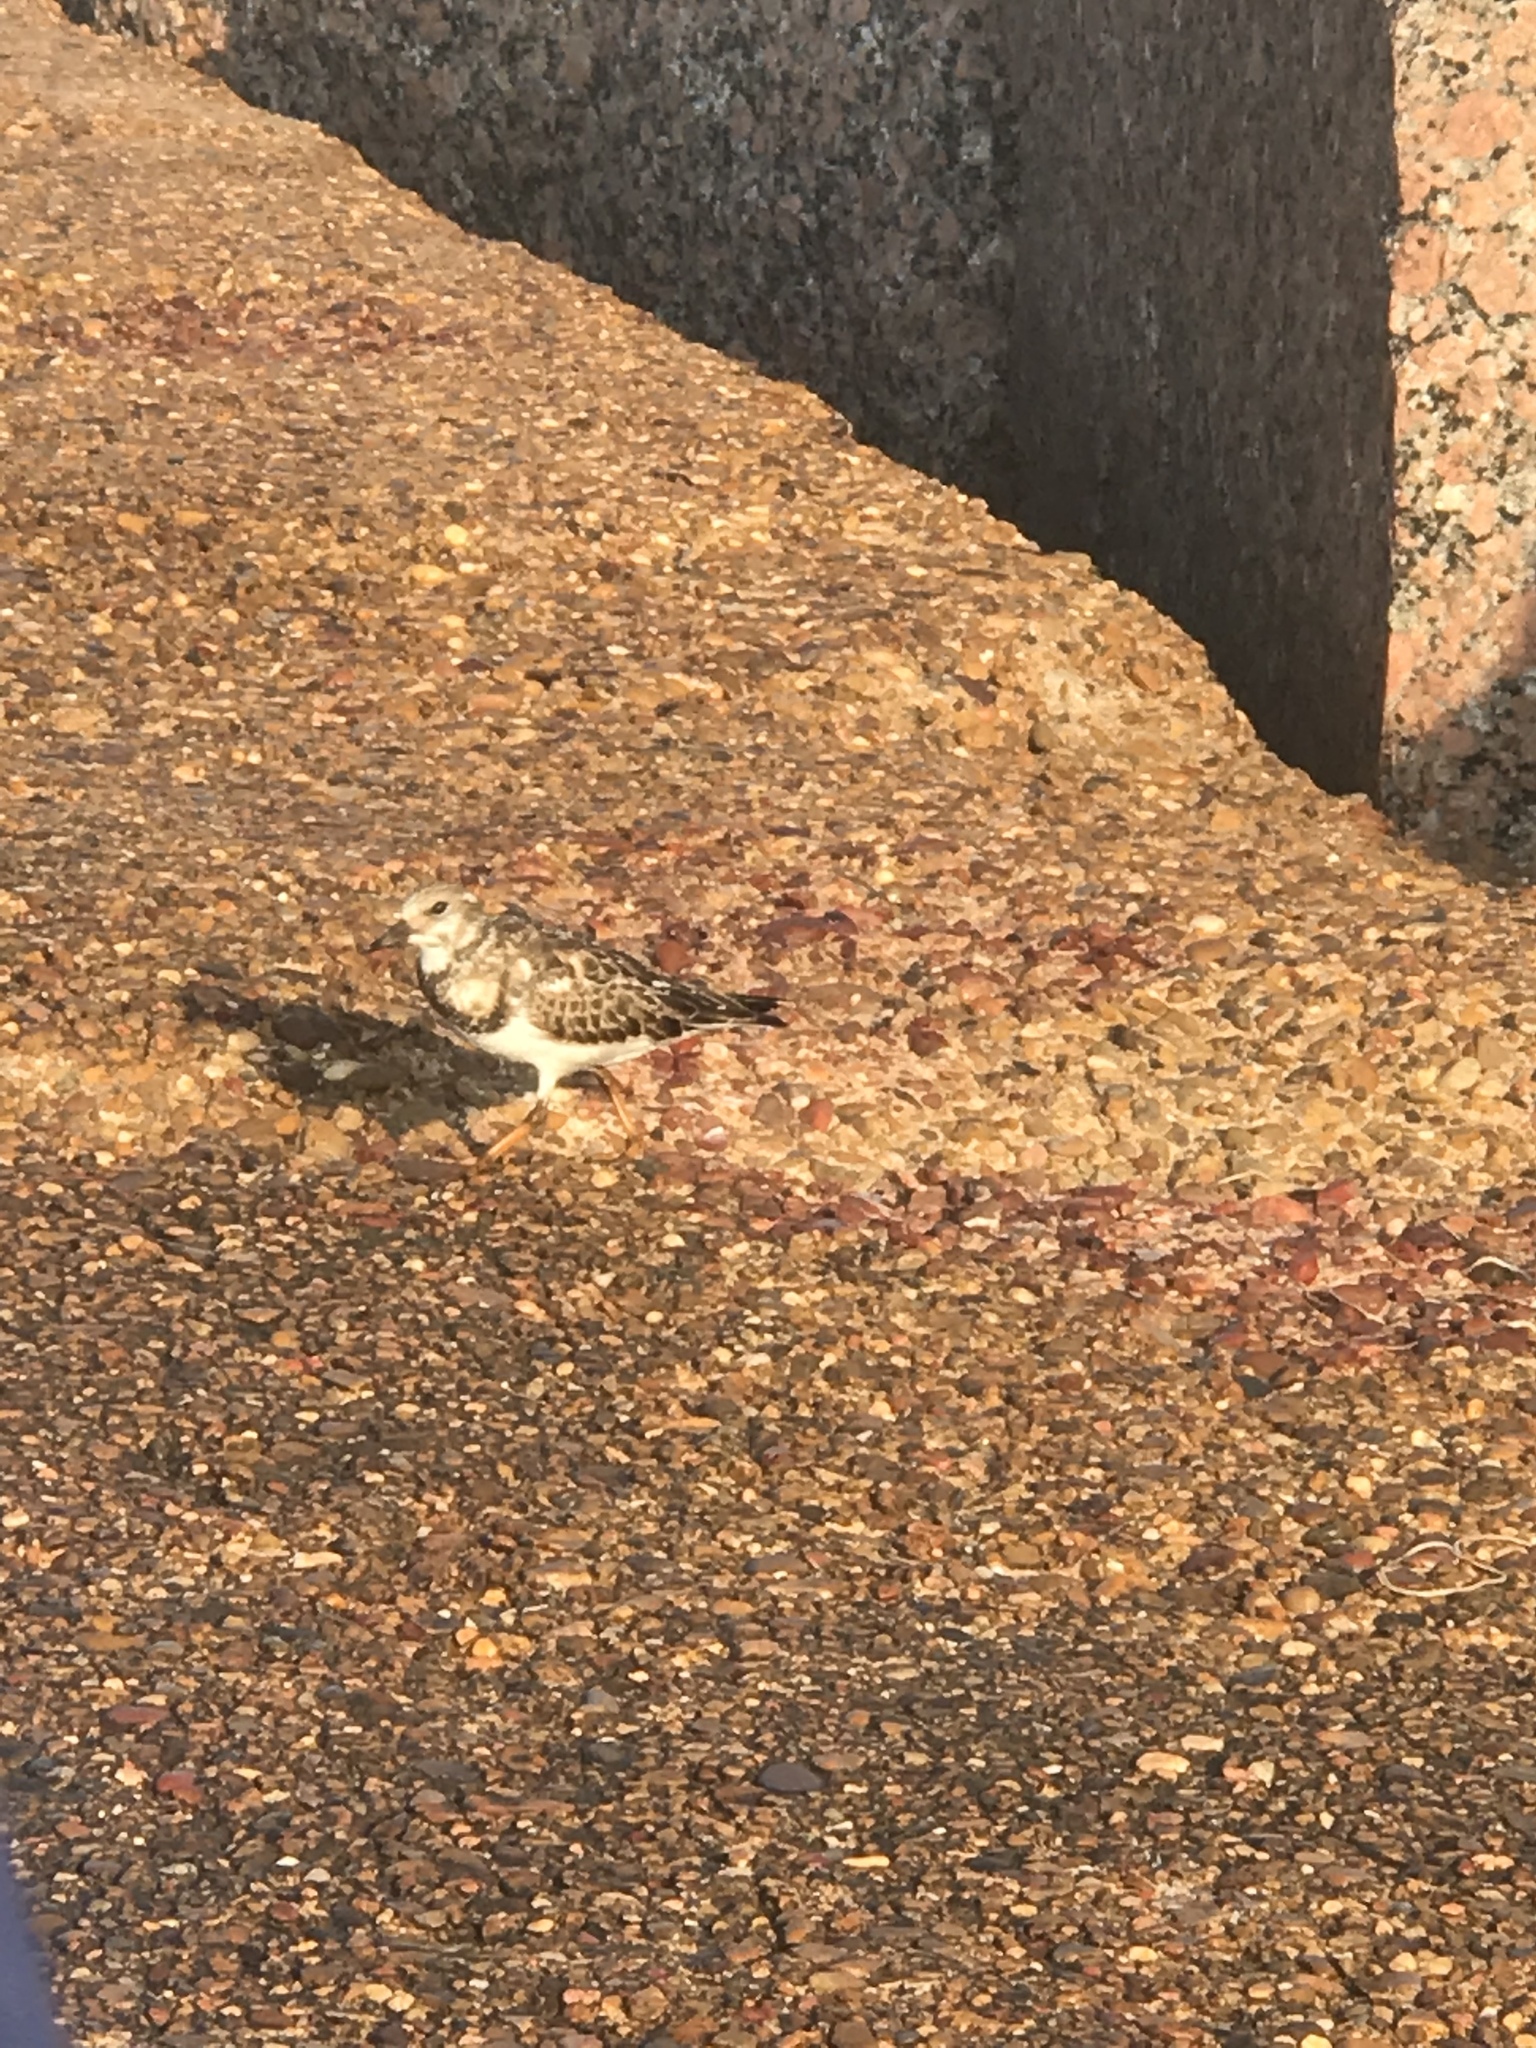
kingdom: Animalia
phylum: Chordata
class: Aves
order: Charadriiformes
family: Scolopacidae
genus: Arenaria
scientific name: Arenaria interpres
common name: Ruddy turnstone
